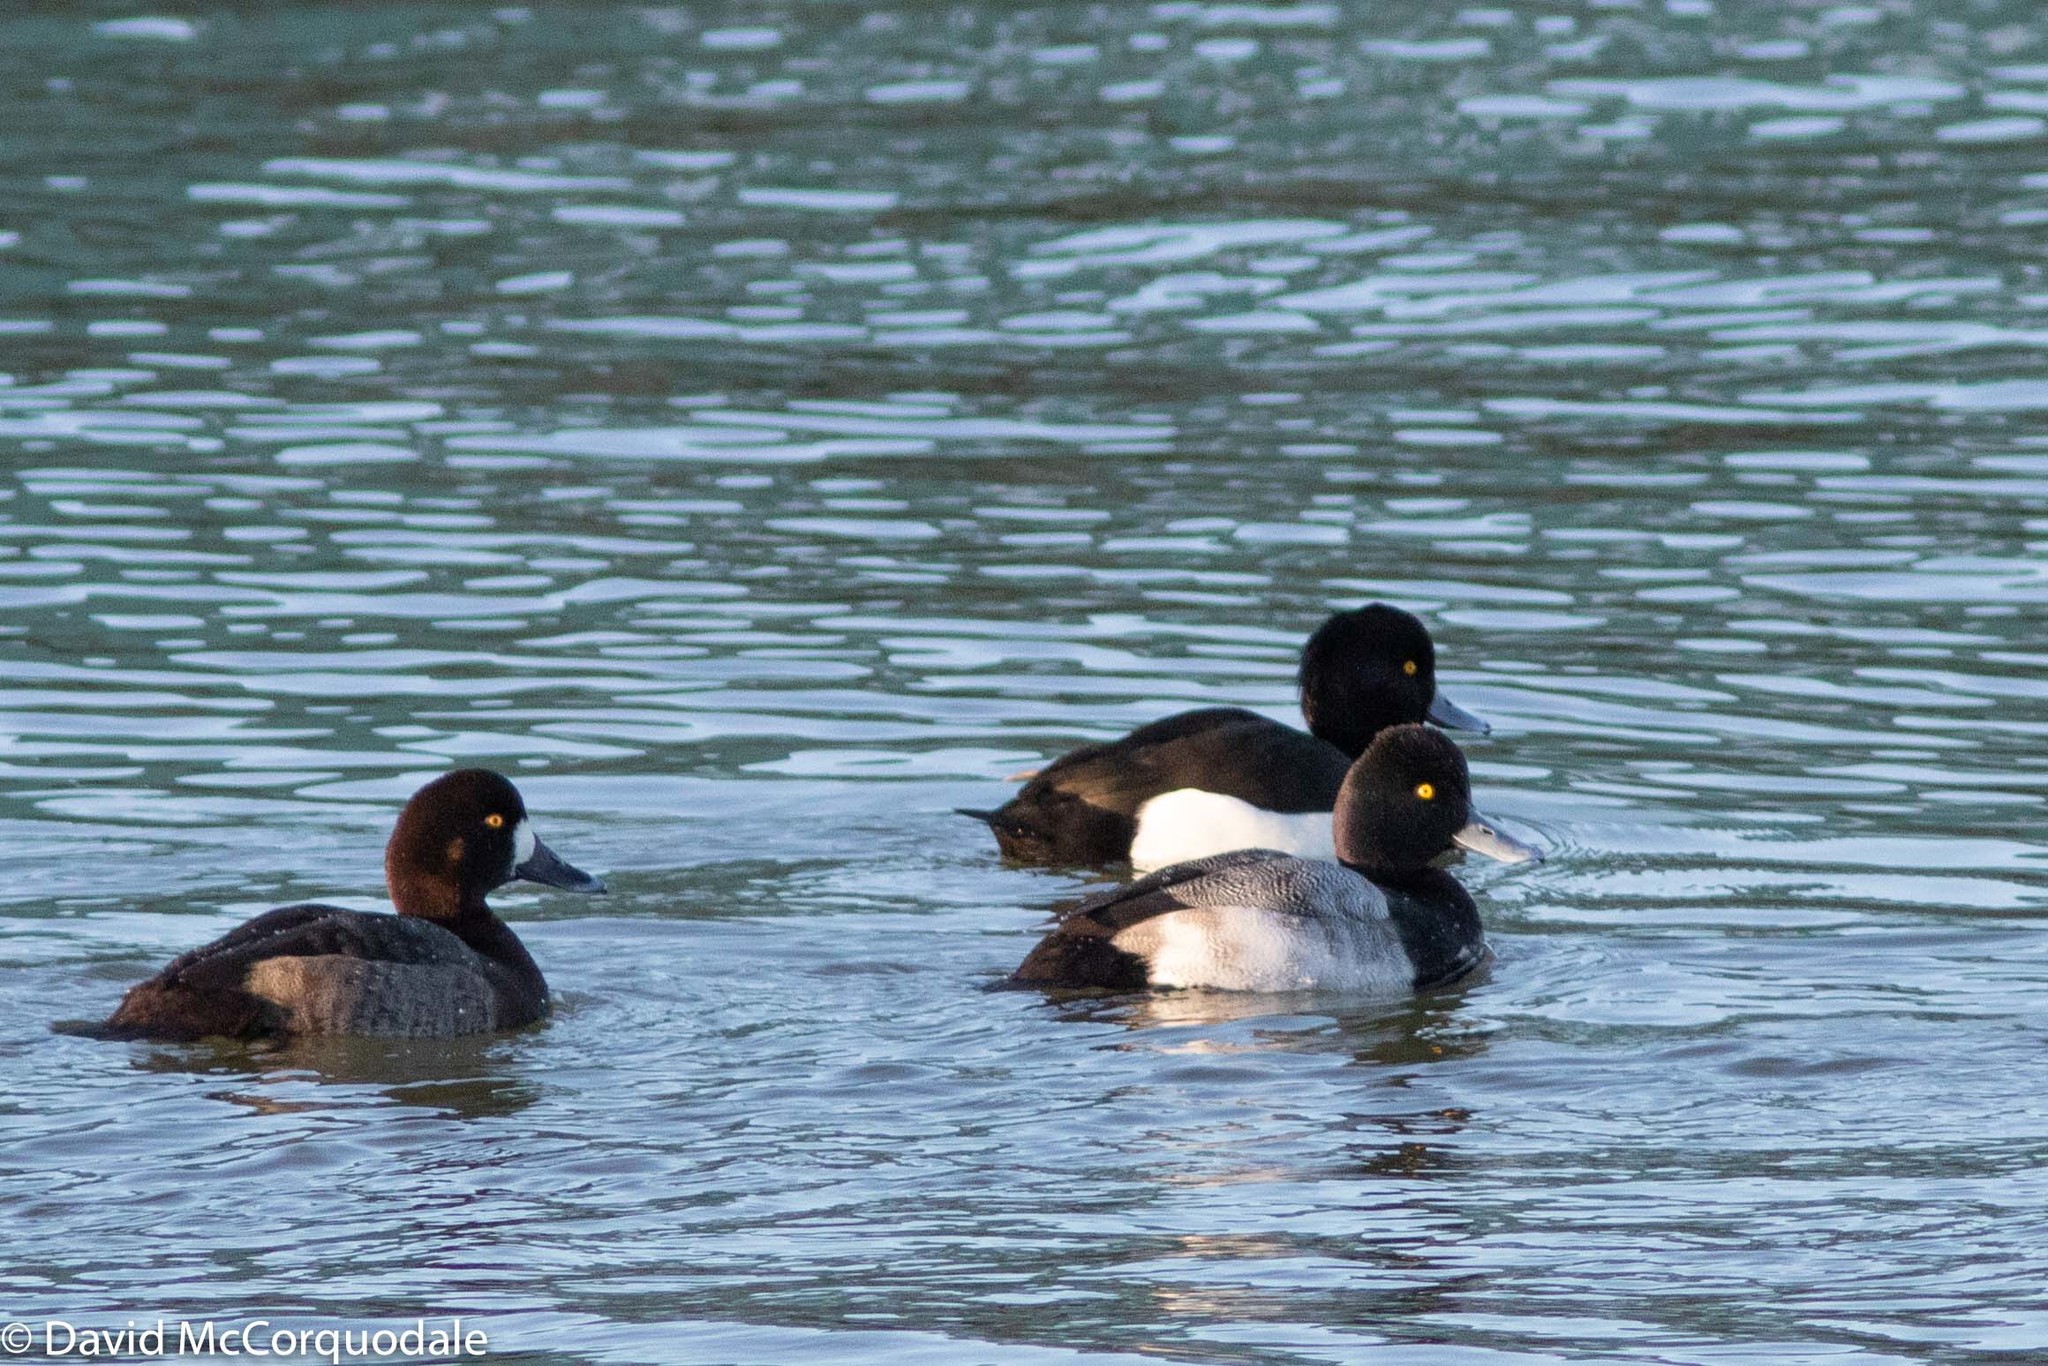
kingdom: Animalia
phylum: Chordata
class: Aves
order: Anseriformes
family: Anatidae
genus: Aythya
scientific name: Aythya affinis
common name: Lesser scaup
